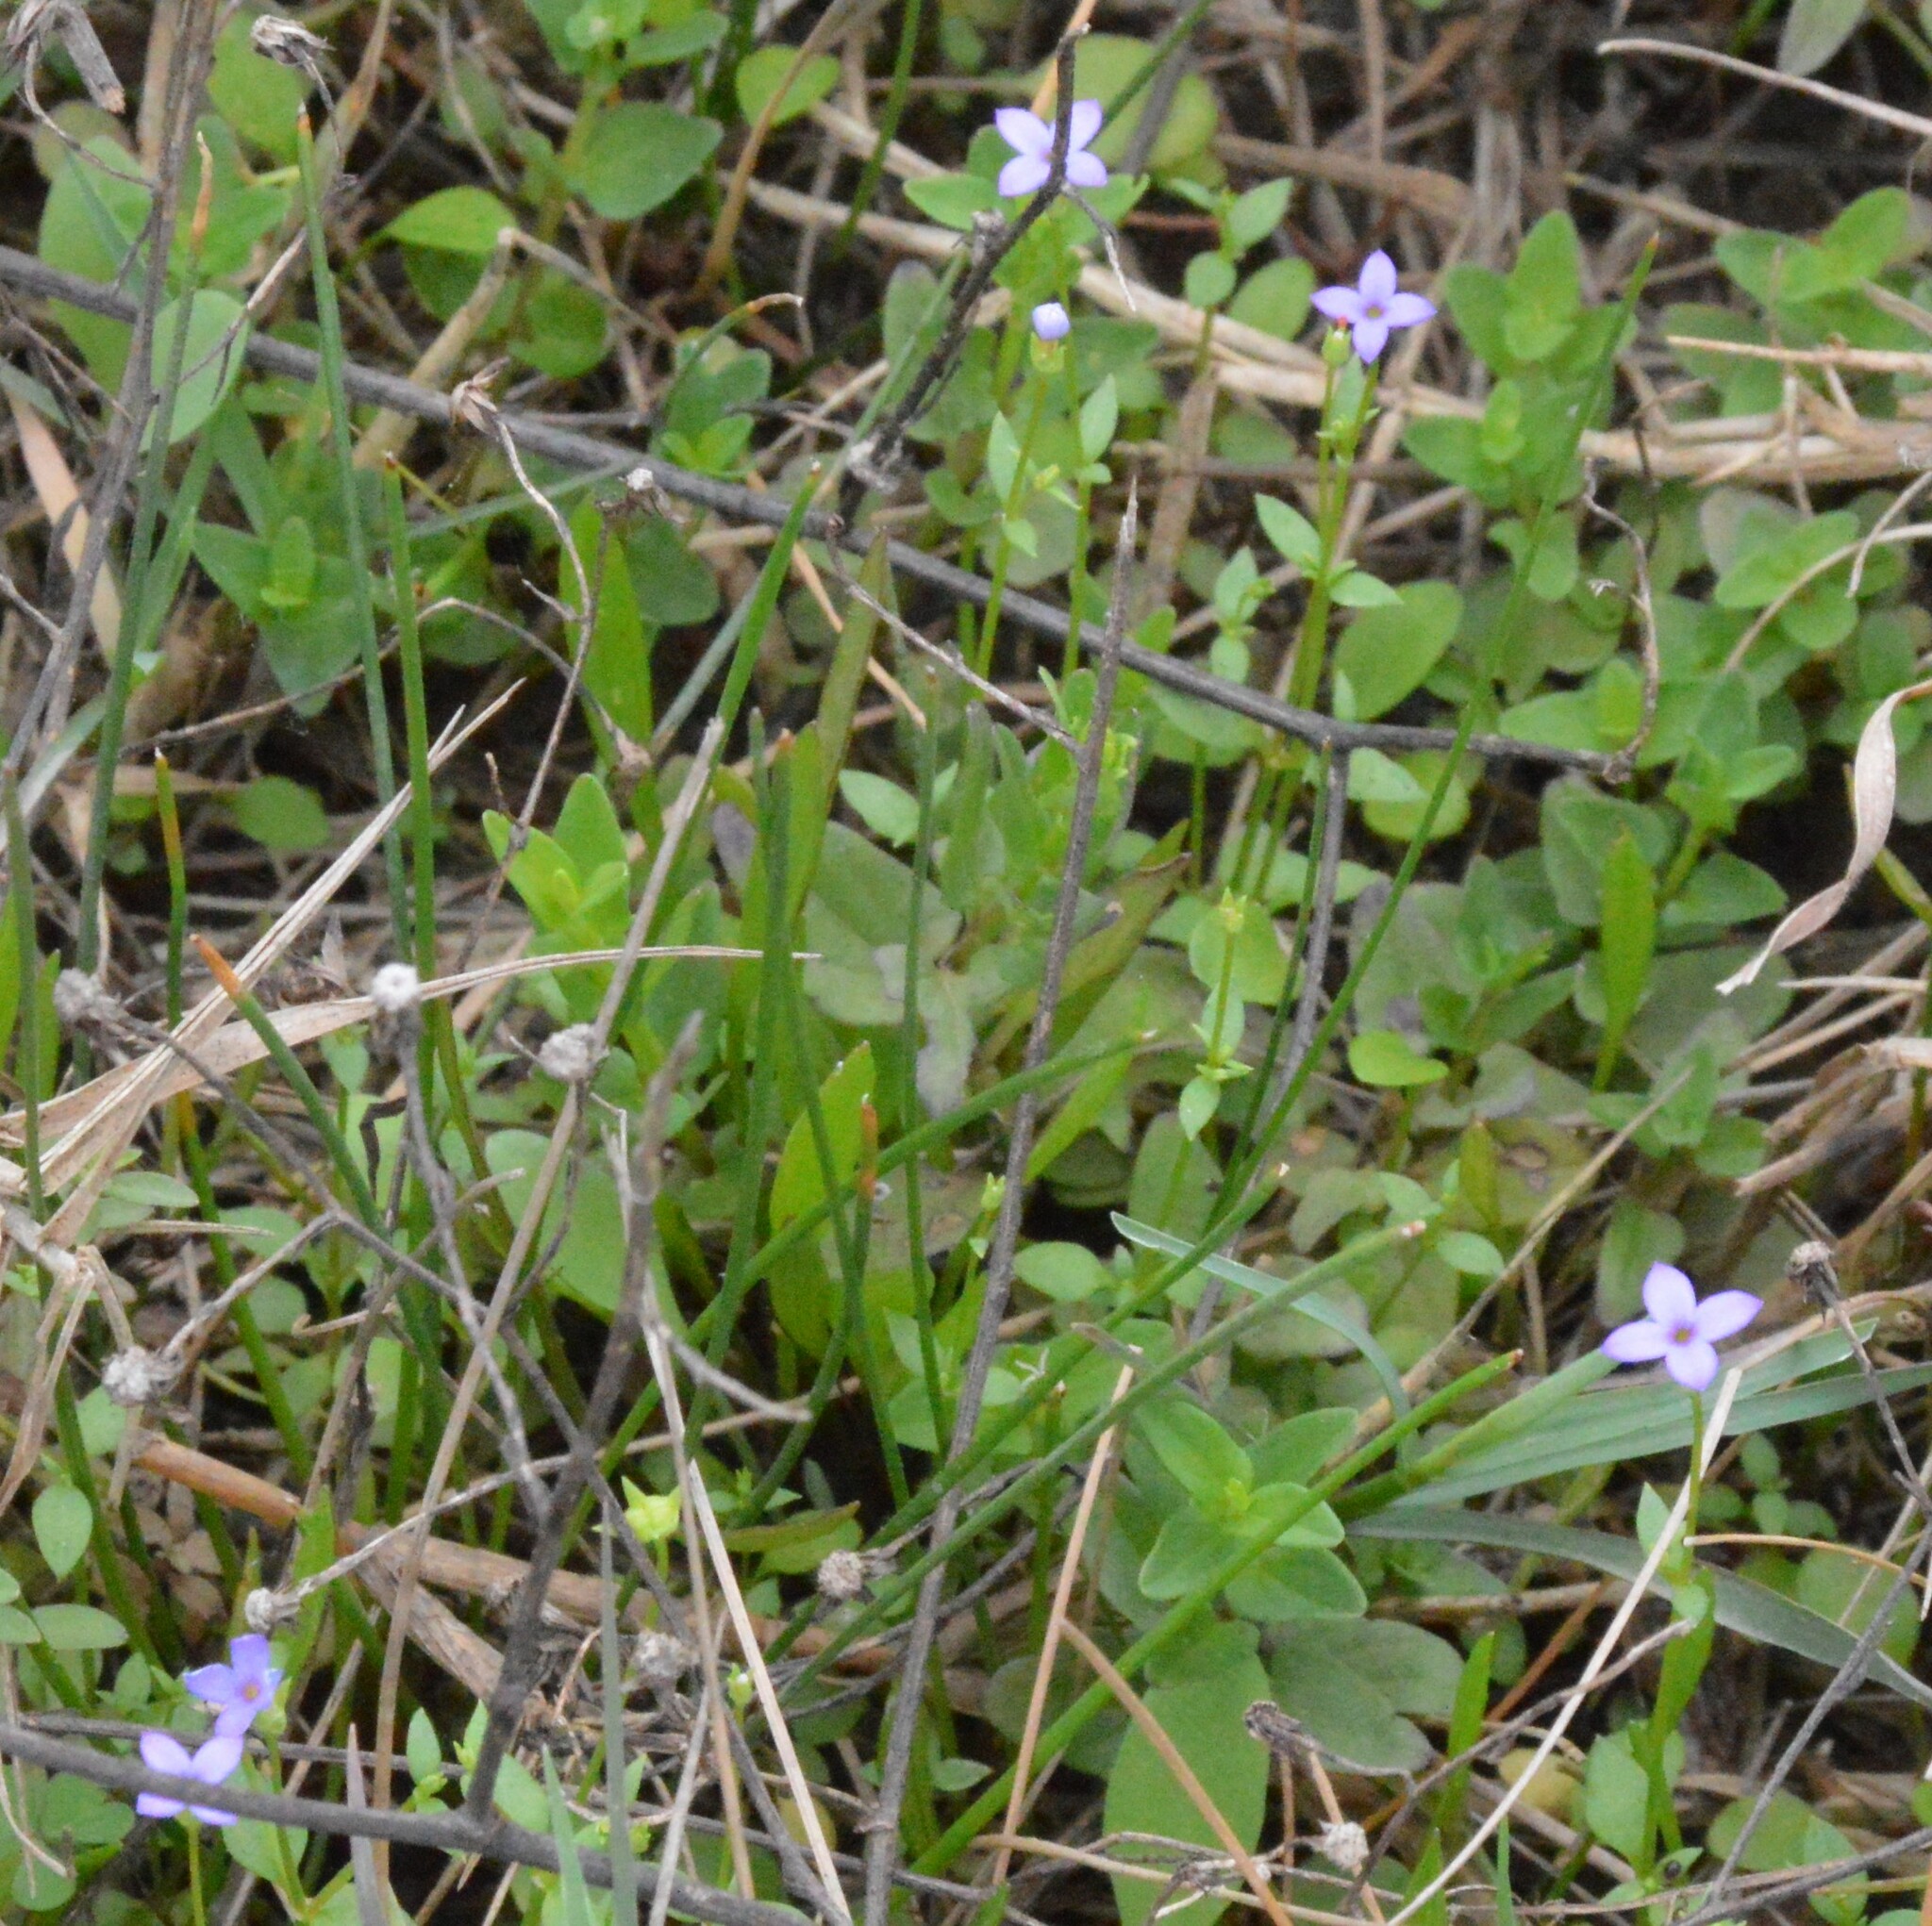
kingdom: Plantae
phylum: Tracheophyta
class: Magnoliopsida
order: Gentianales
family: Rubiaceae
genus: Houstonia
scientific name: Houstonia pusilla
